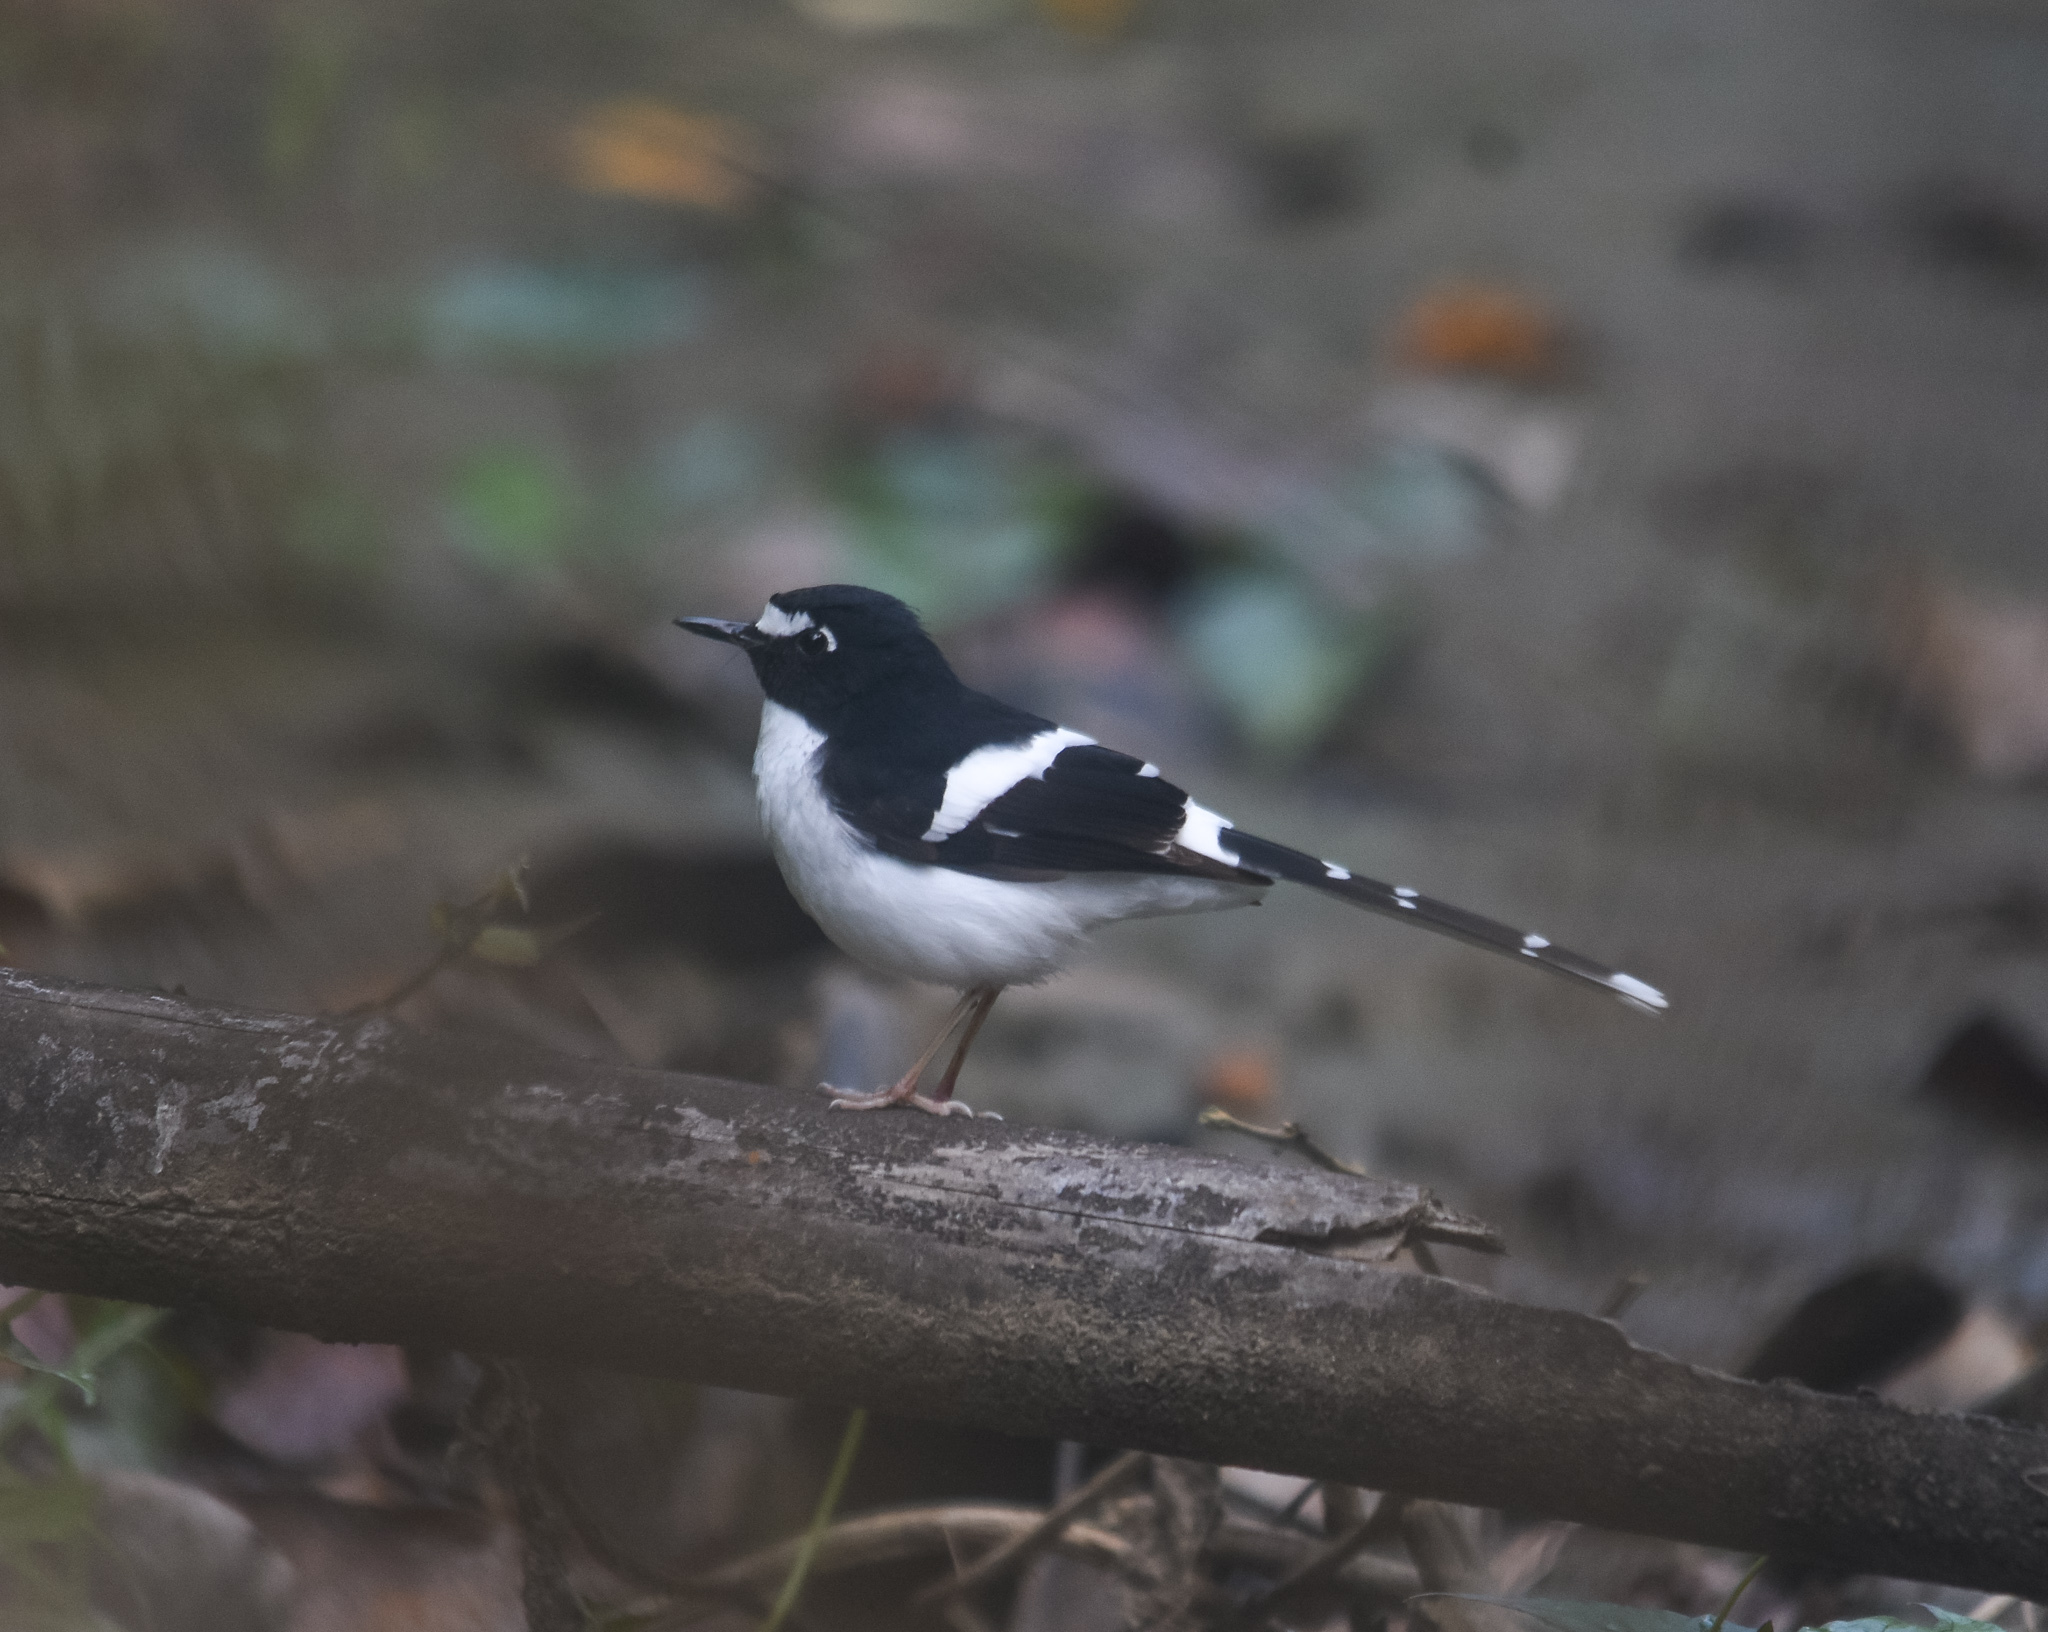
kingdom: Animalia
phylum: Chordata
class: Aves
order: Passeriformes
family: Muscicapidae
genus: Enicurus
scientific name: Enicurus immaculatus
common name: Black-backed forktail
